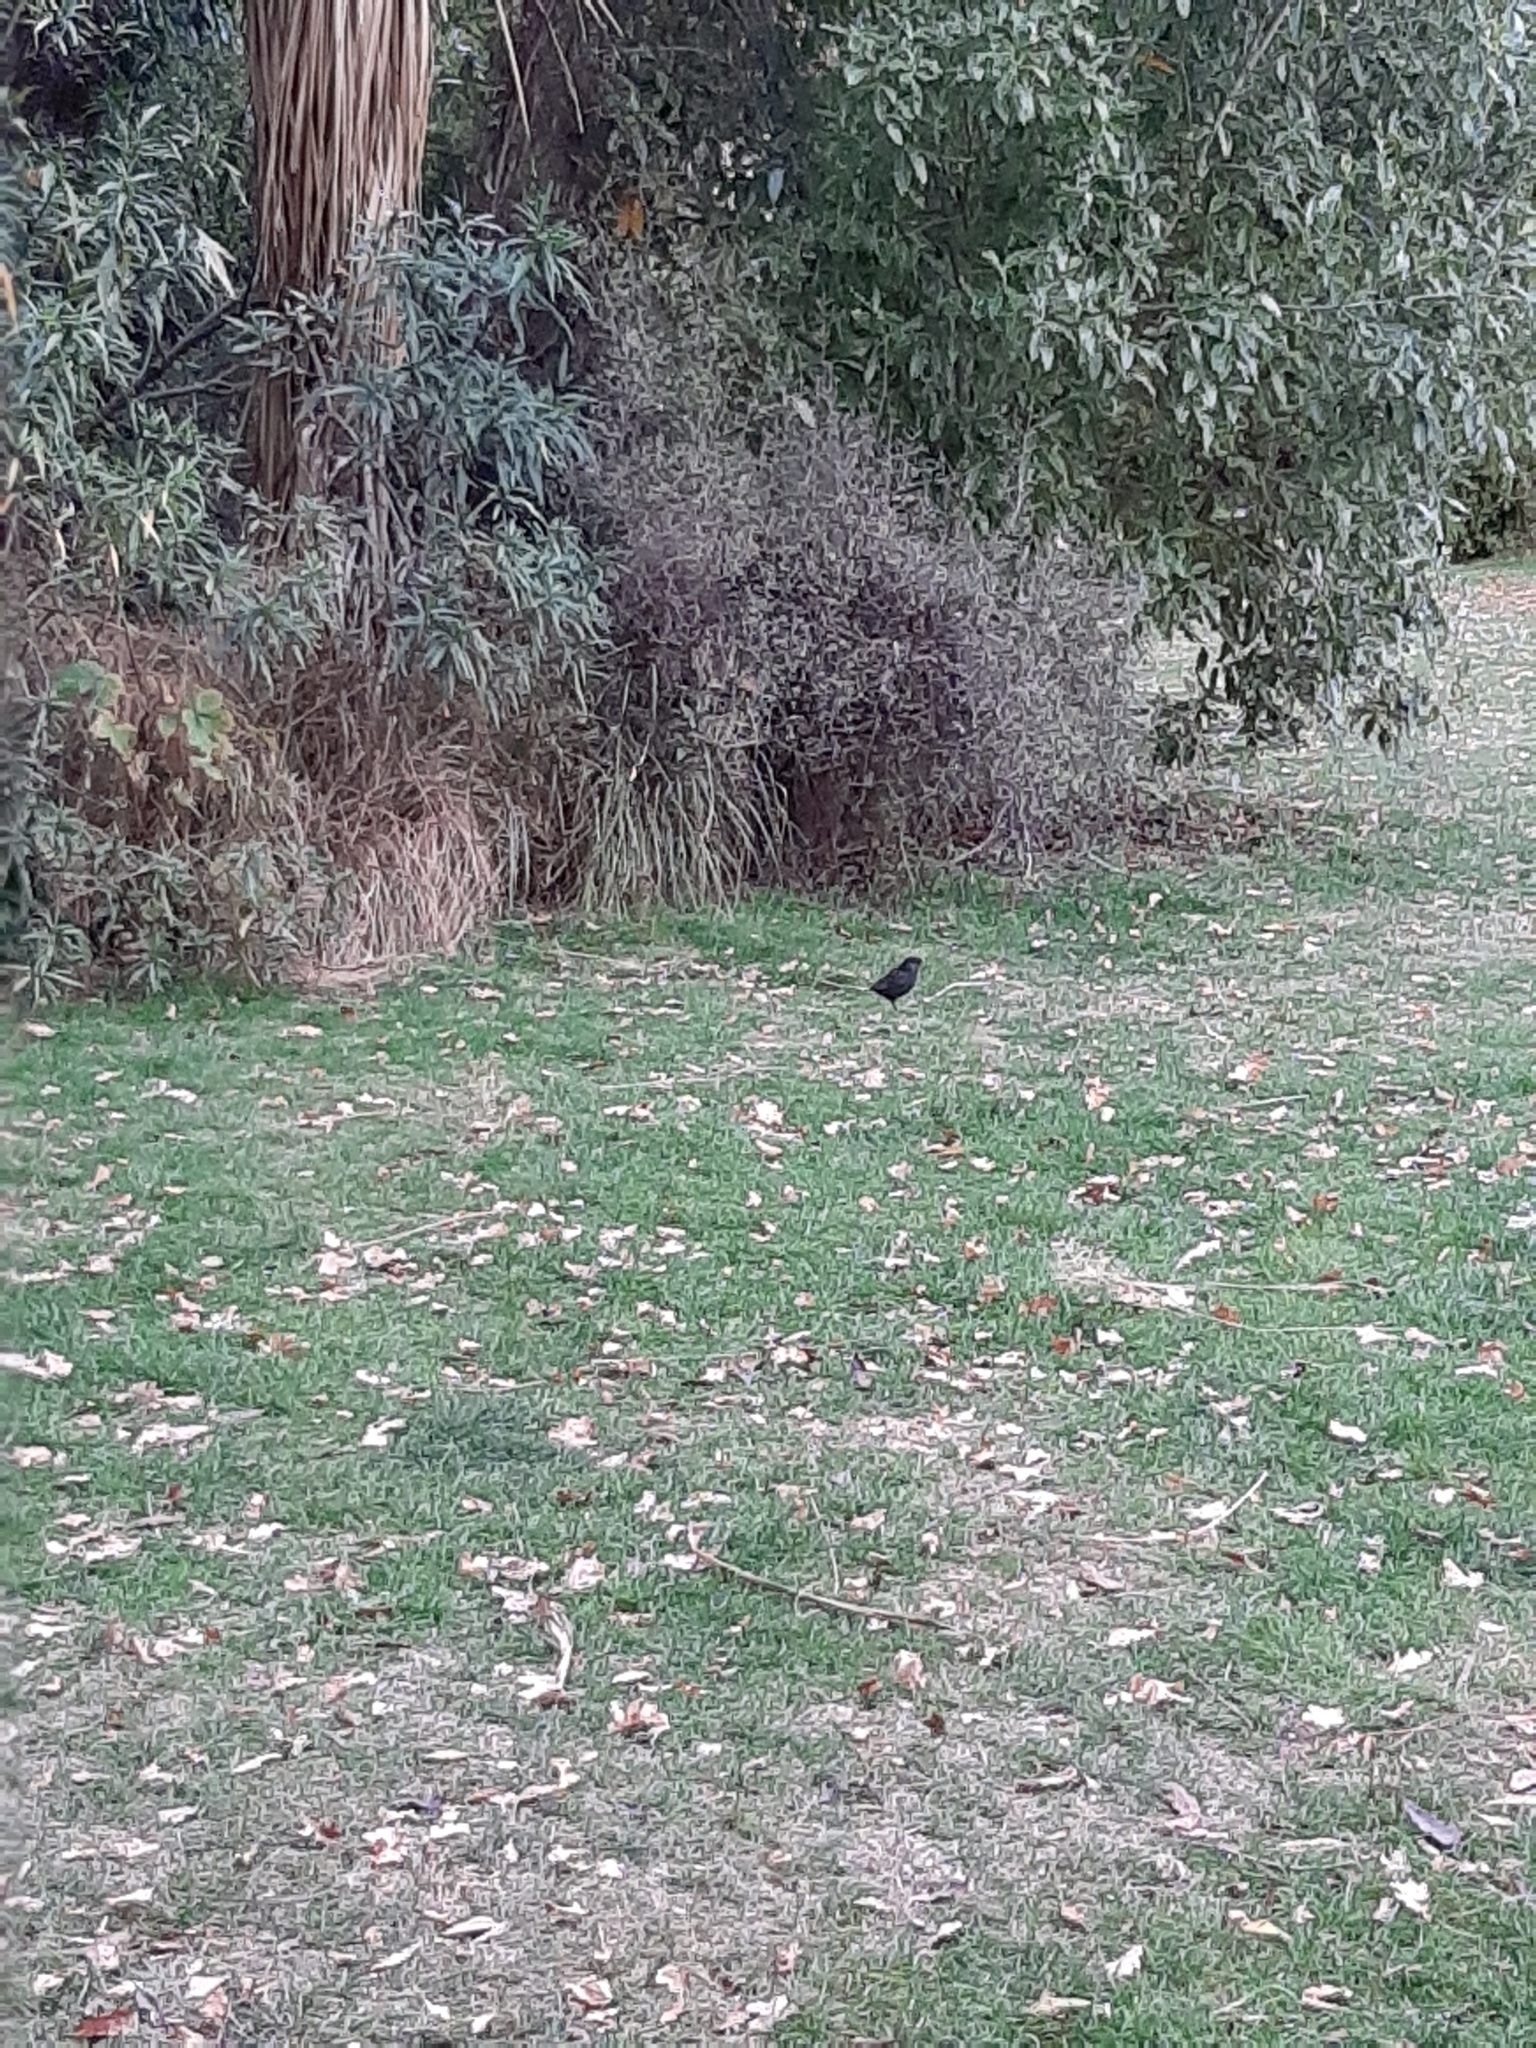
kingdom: Animalia
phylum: Chordata
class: Aves
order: Passeriformes
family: Turdidae
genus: Turdus
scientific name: Turdus merula
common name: Common blackbird
